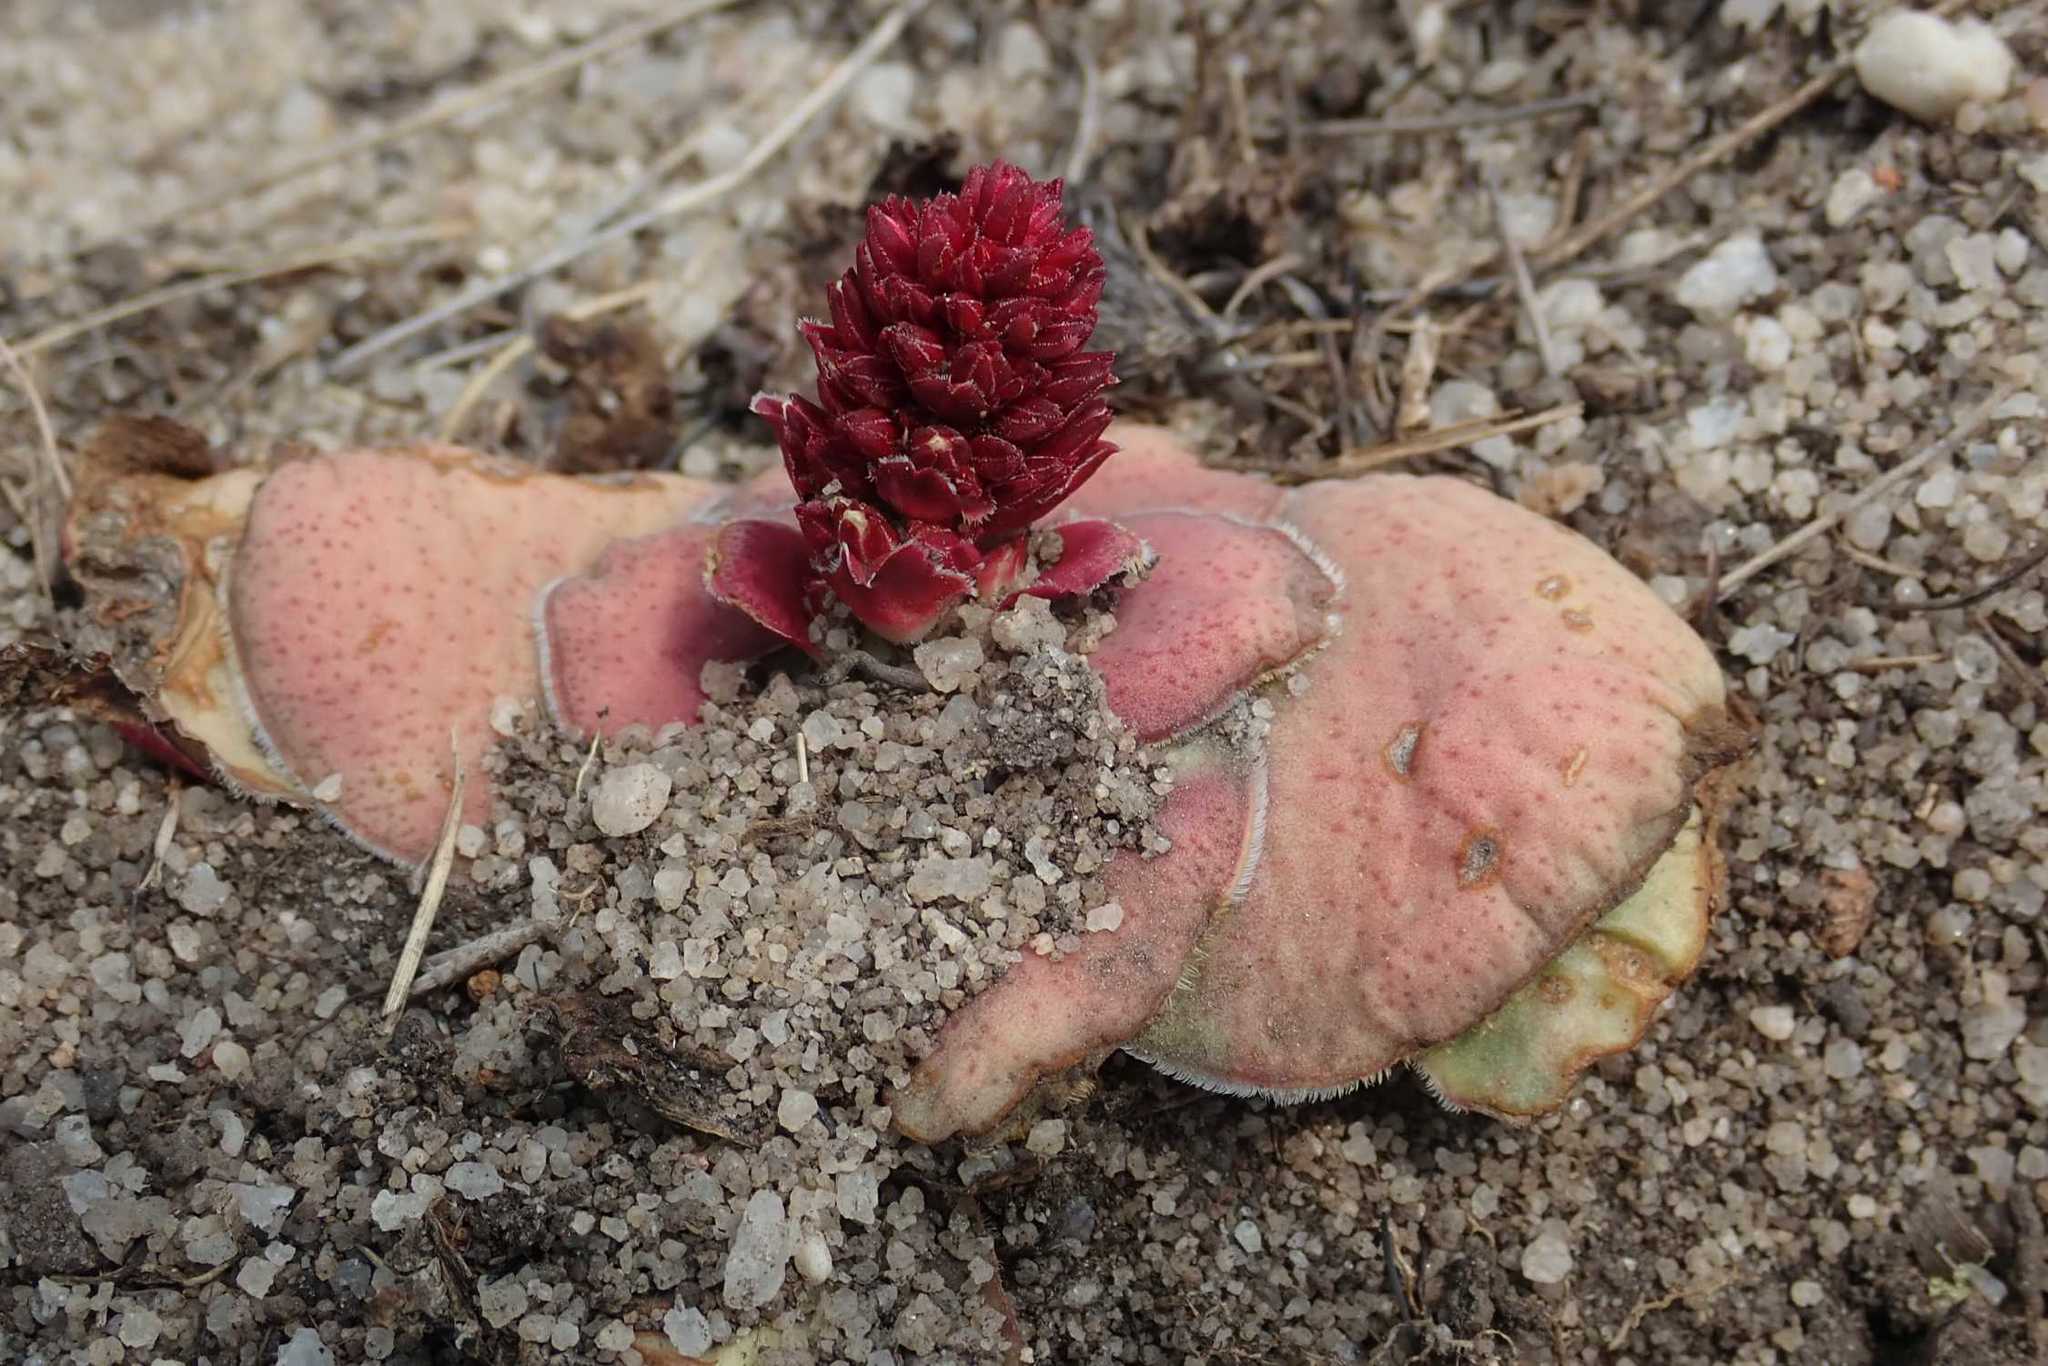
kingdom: Plantae
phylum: Tracheophyta
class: Magnoliopsida
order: Saxifragales
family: Crassulaceae
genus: Crassula
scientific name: Crassula compacta
